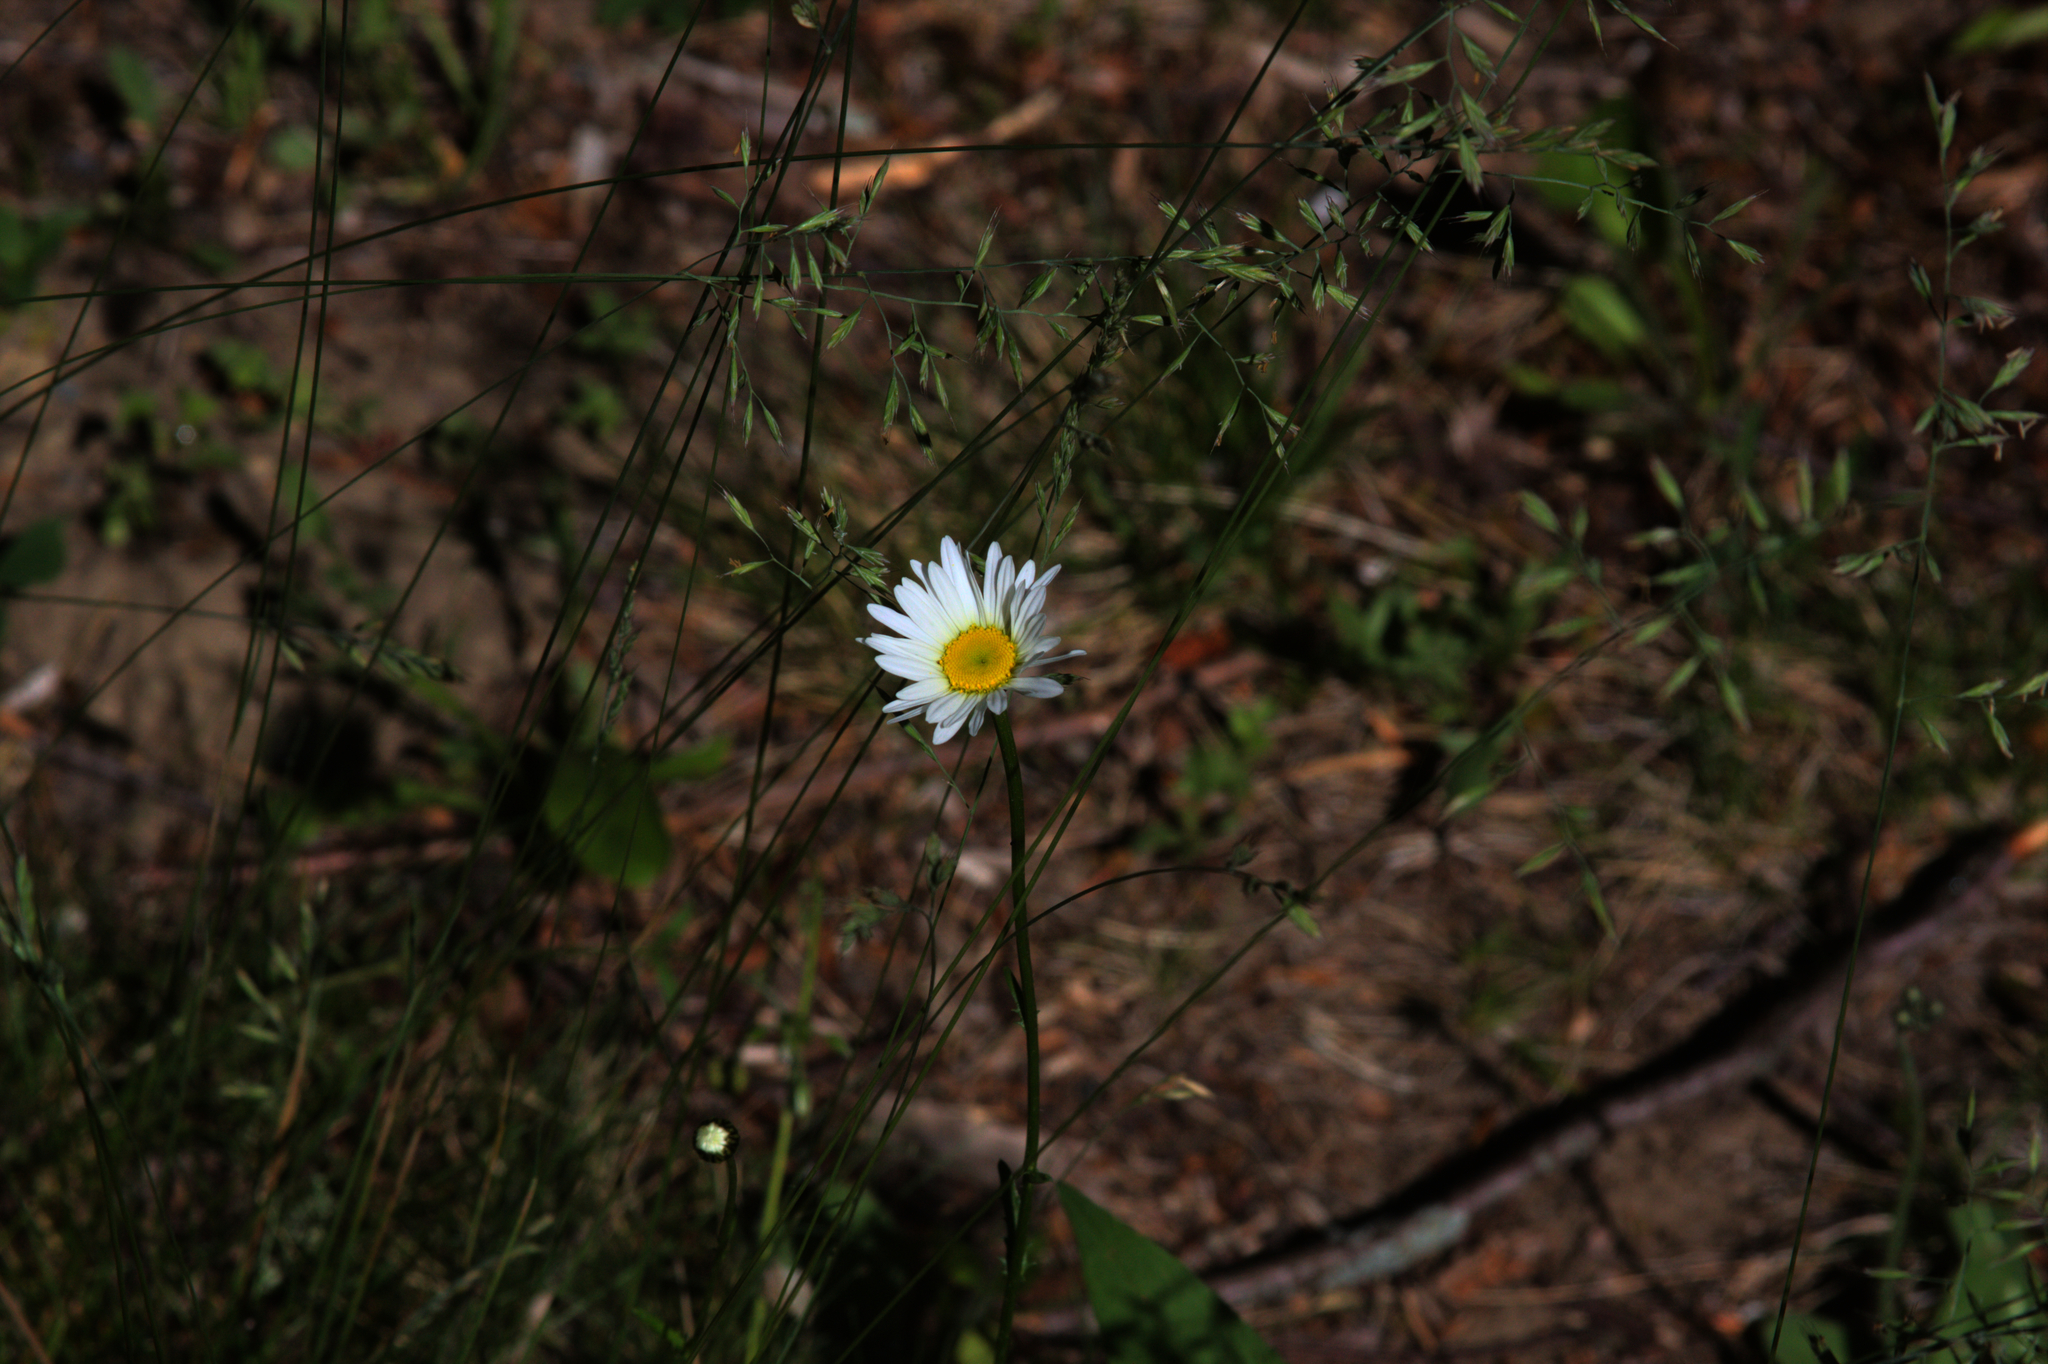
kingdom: Plantae
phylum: Tracheophyta
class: Magnoliopsida
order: Asterales
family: Asteraceae
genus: Leucanthemum
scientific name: Leucanthemum vulgare
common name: Oxeye daisy
